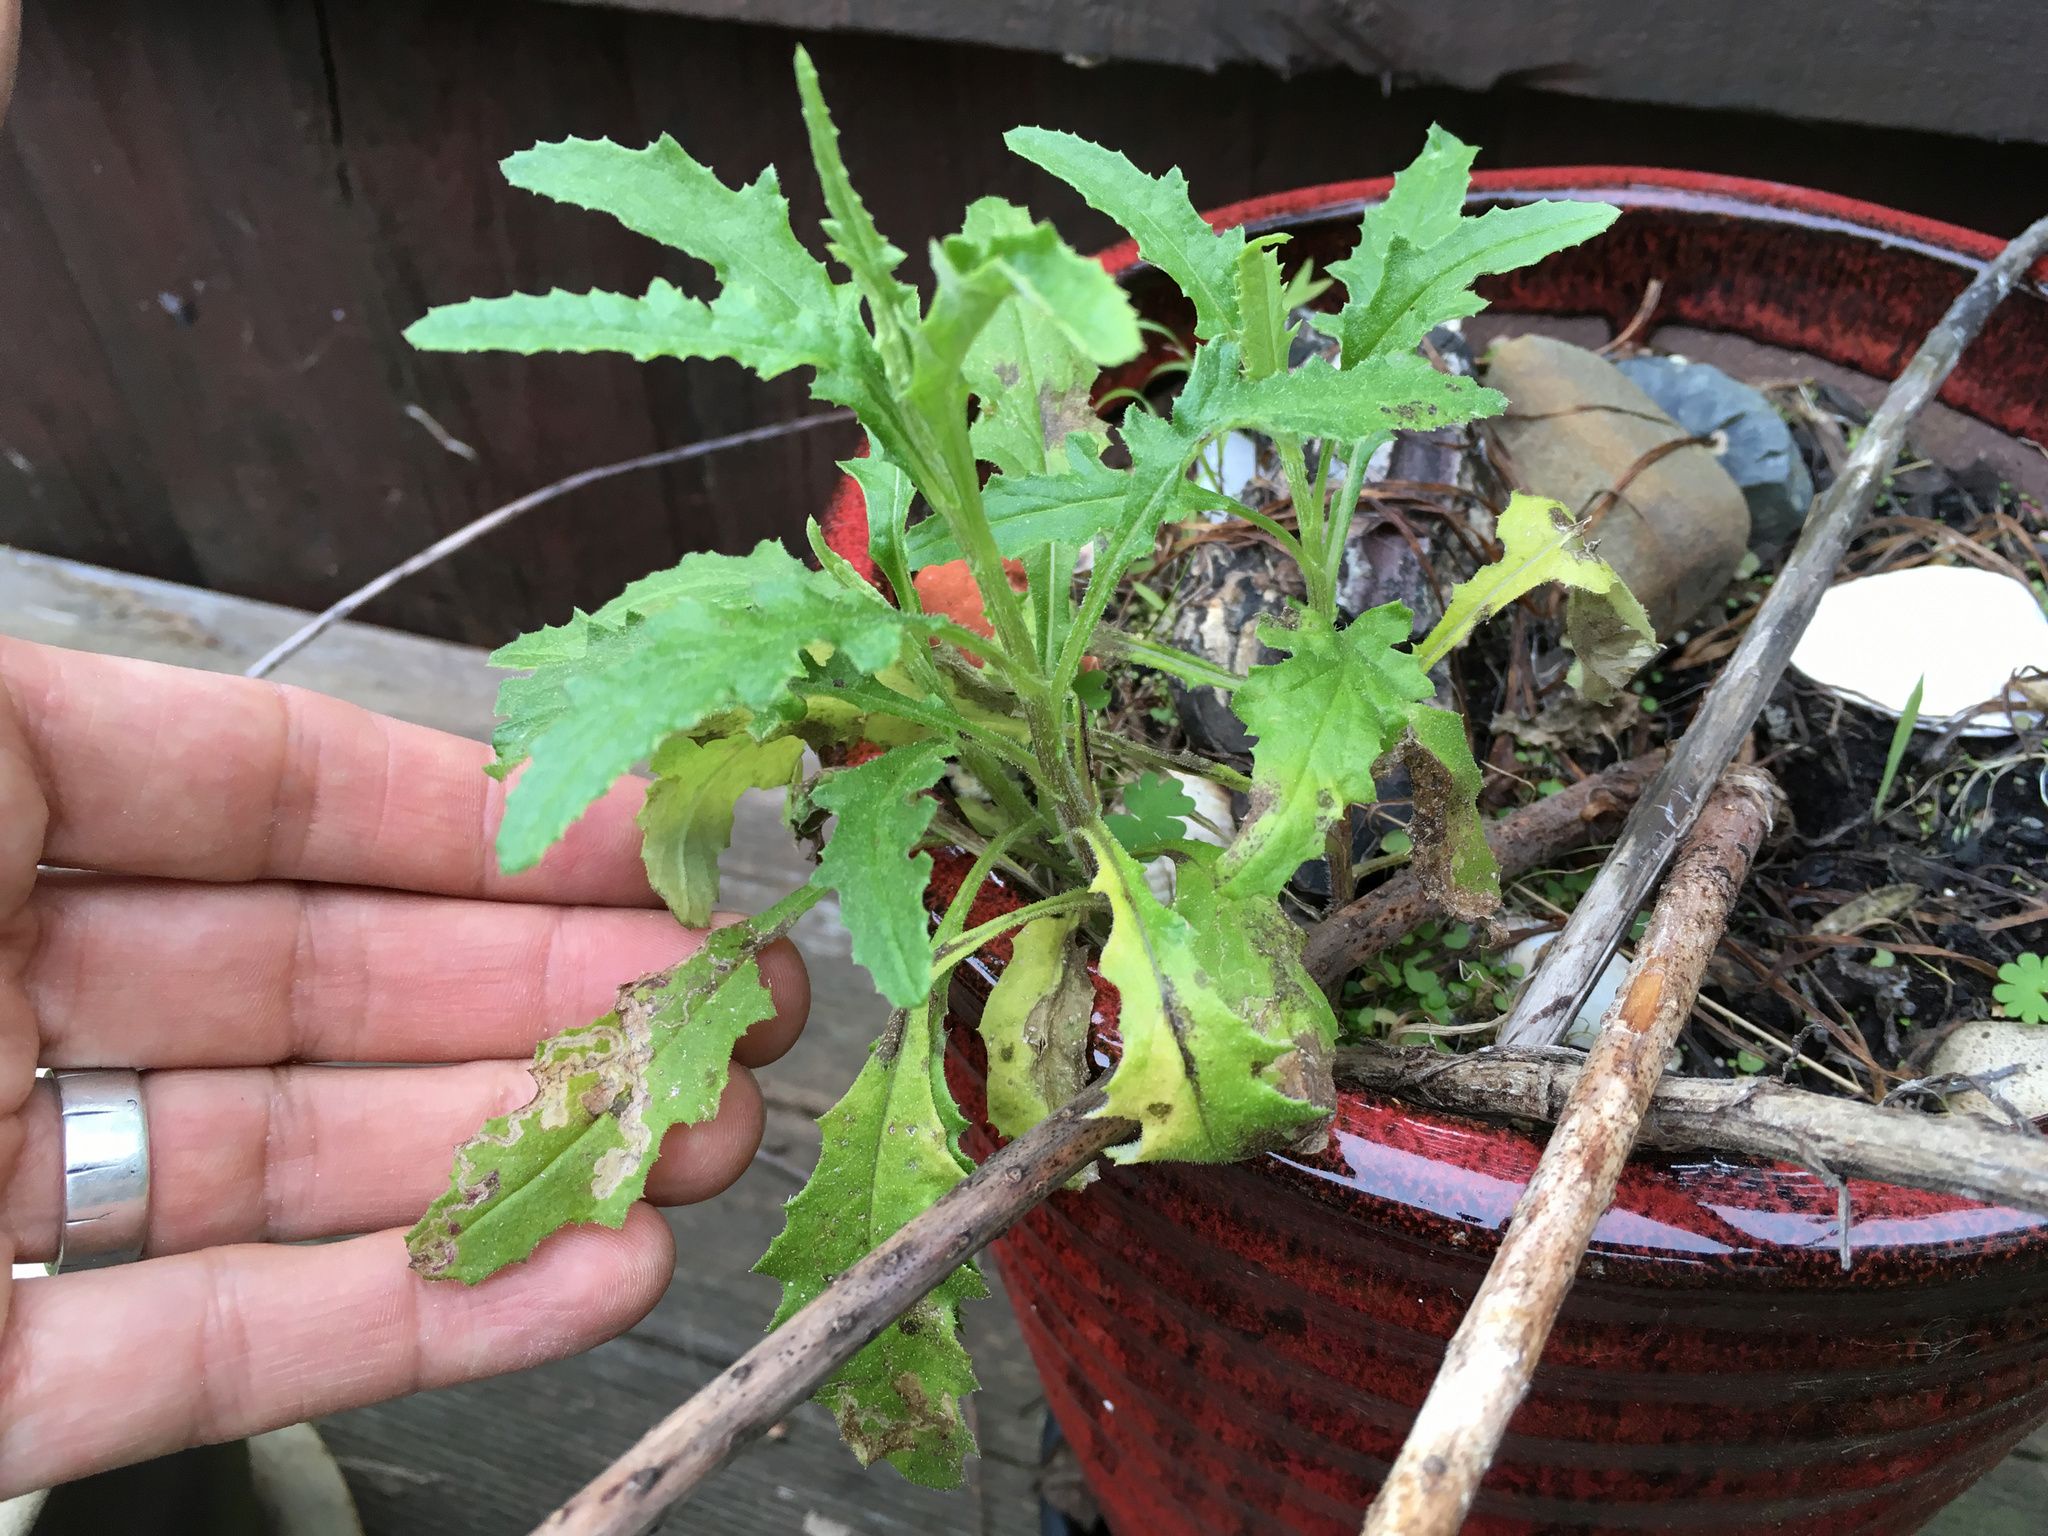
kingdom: Plantae
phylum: Tracheophyta
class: Magnoliopsida
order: Asterales
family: Asteraceae
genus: Senecio
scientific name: Senecio hispidulus
